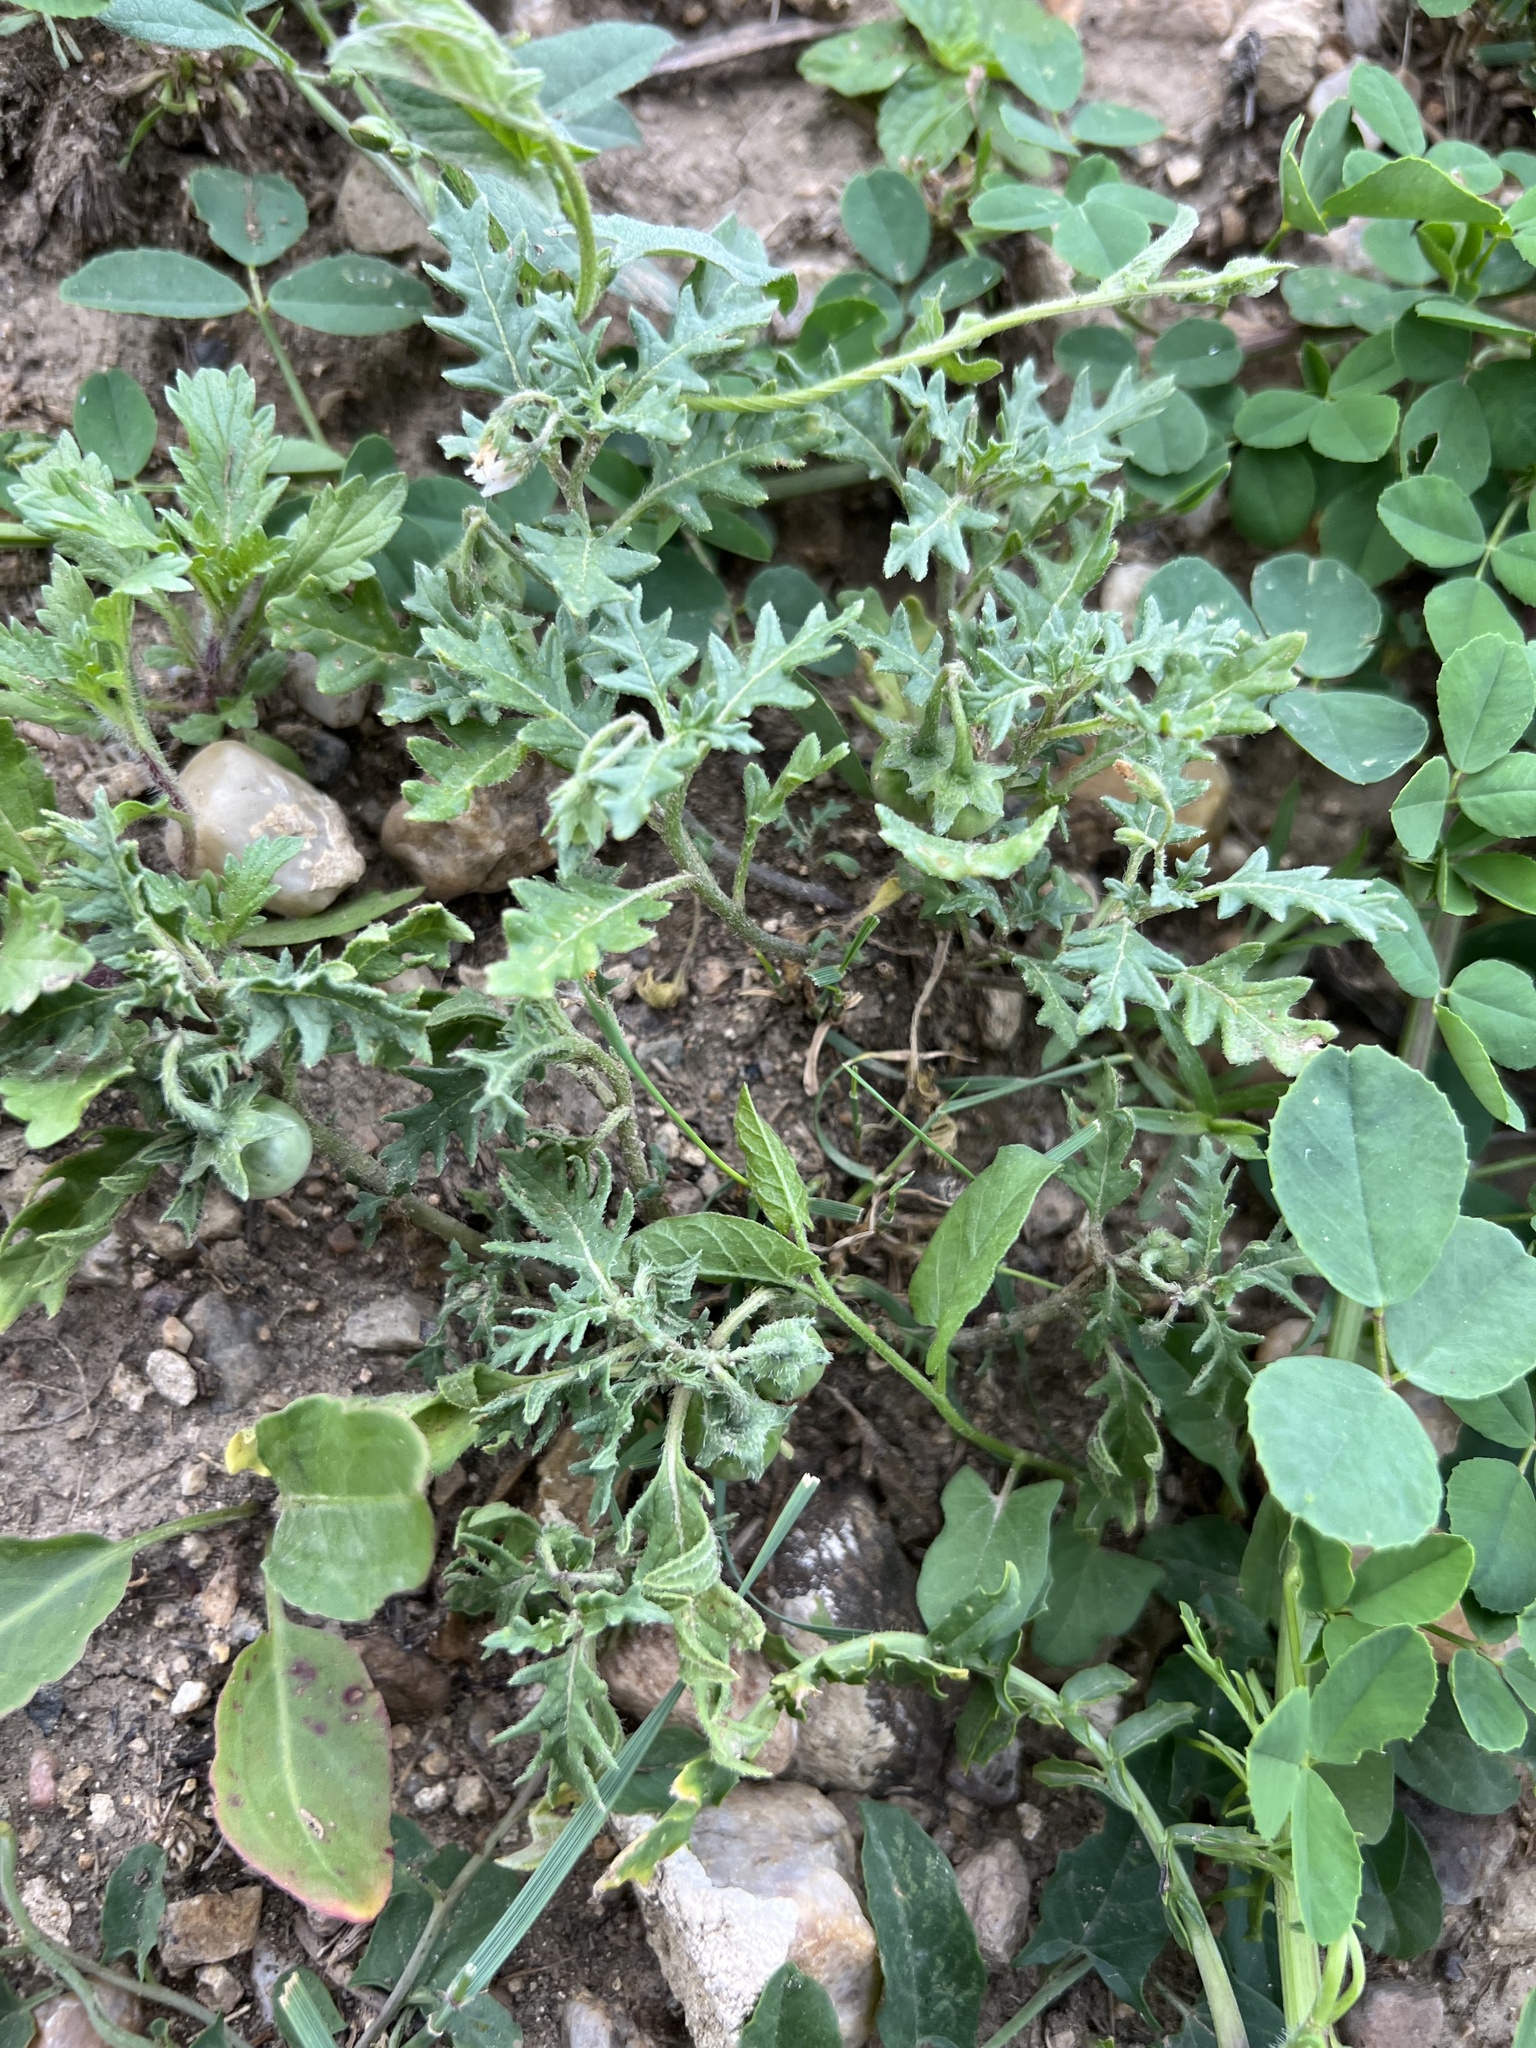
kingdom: Plantae
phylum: Tracheophyta
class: Magnoliopsida
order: Solanales
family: Solanaceae
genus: Solanum
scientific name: Solanum triflorum
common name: Small nightshade
